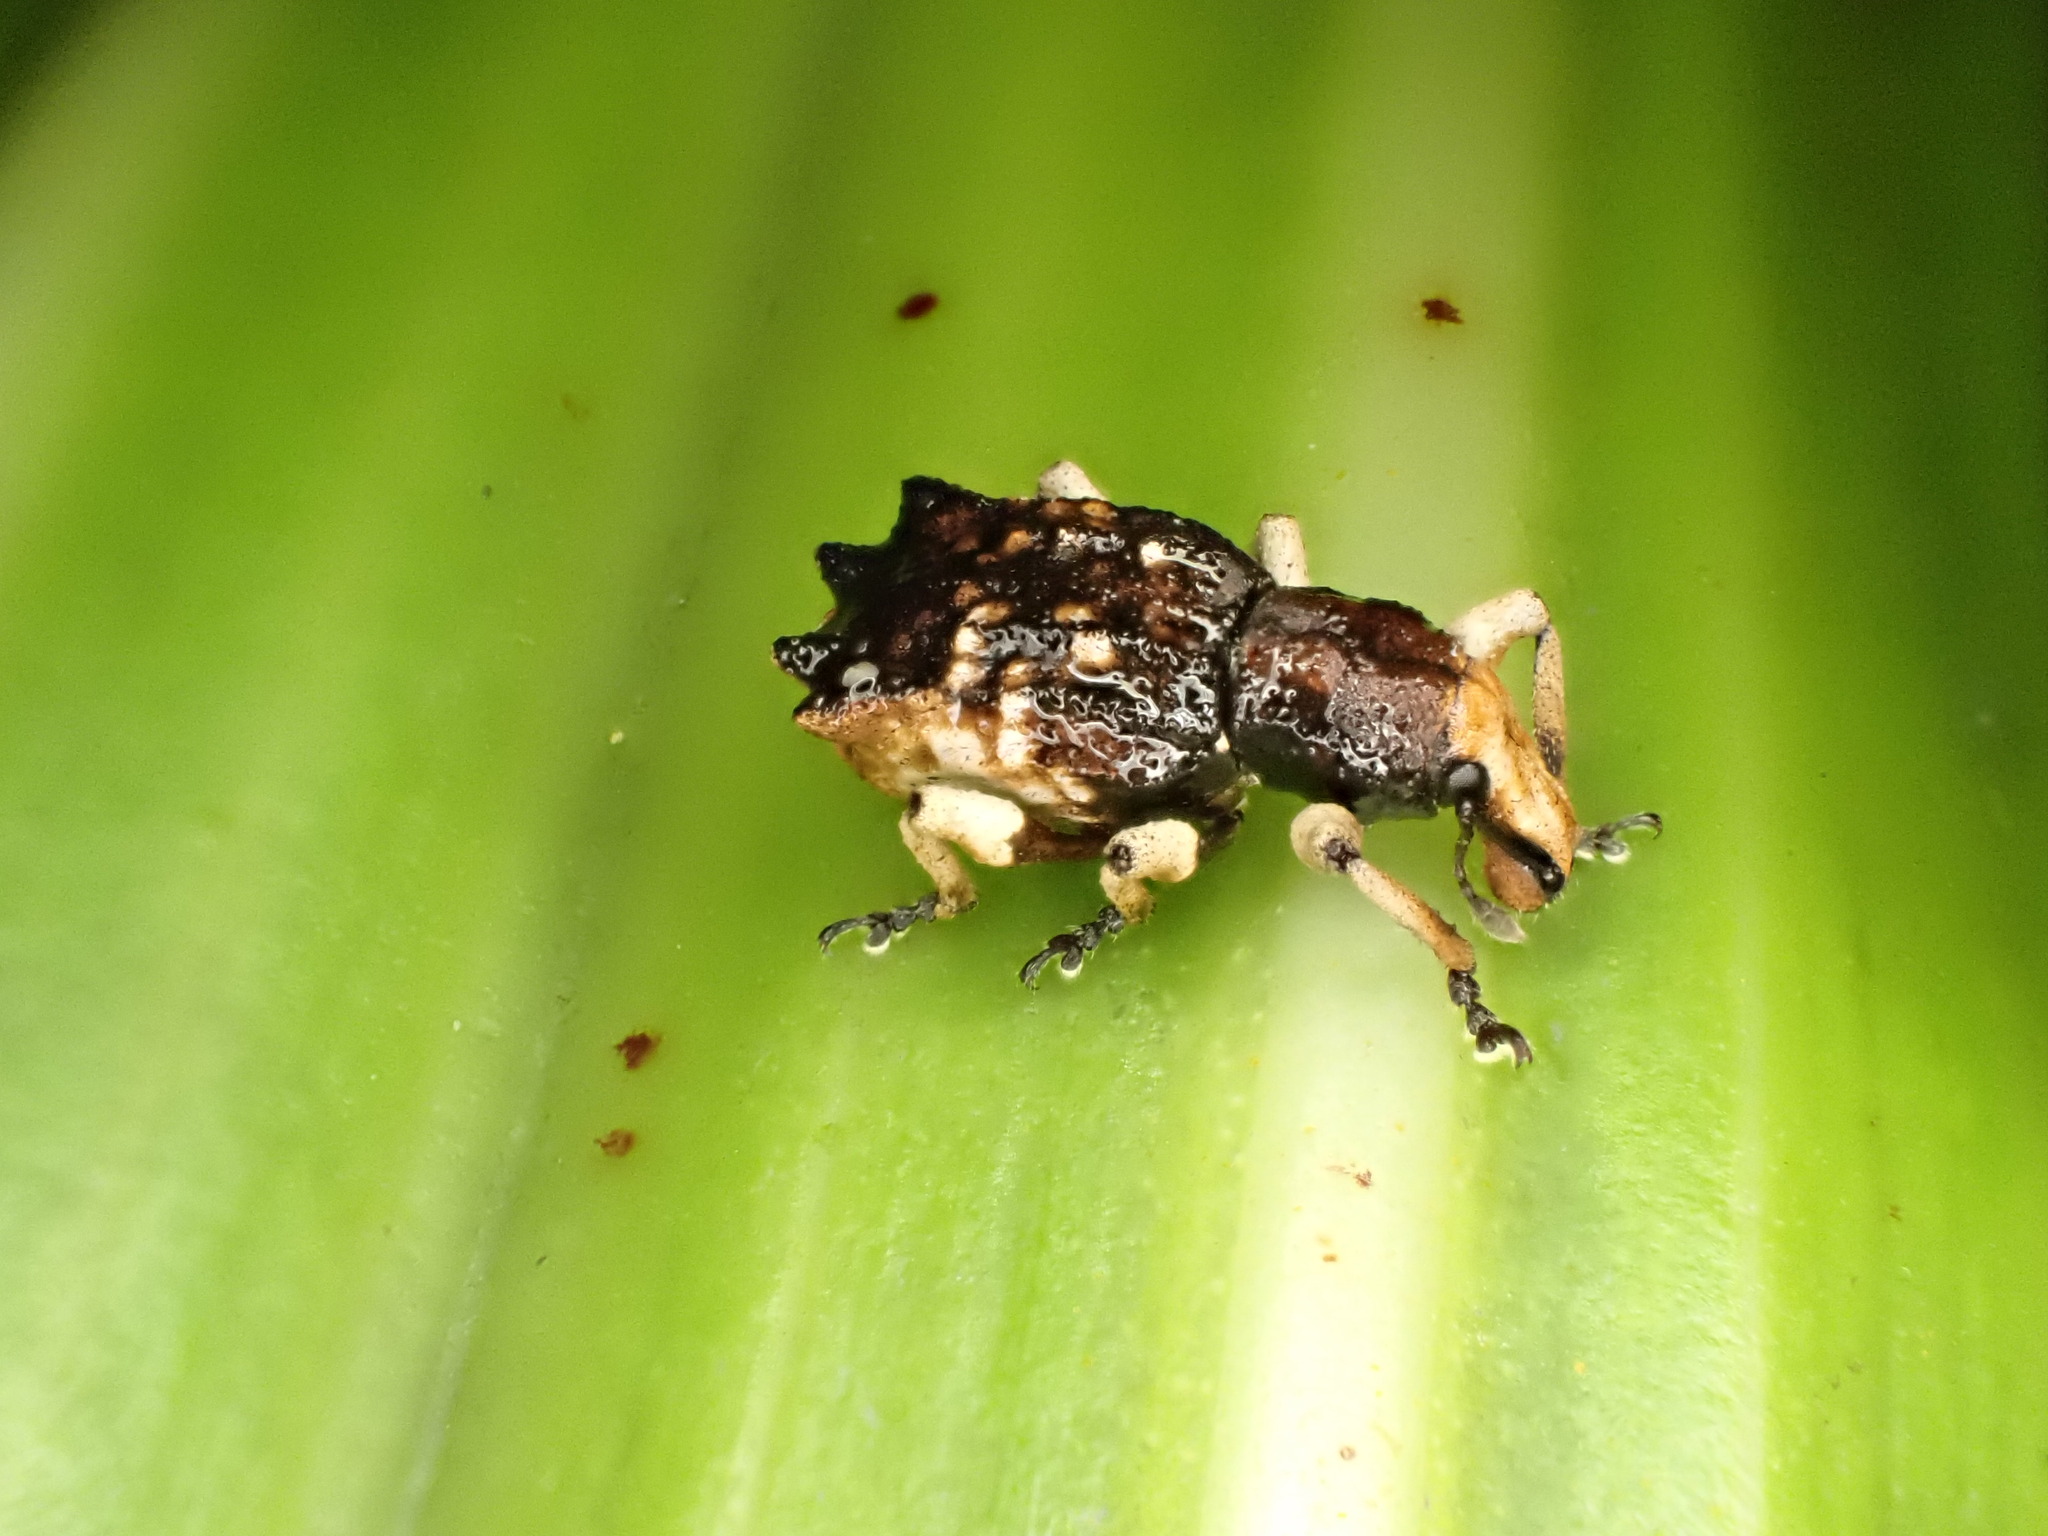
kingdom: Animalia
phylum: Arthropoda
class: Insecta
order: Coleoptera
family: Curculionidae
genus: Agatholobus
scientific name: Agatholobus waterhousei
